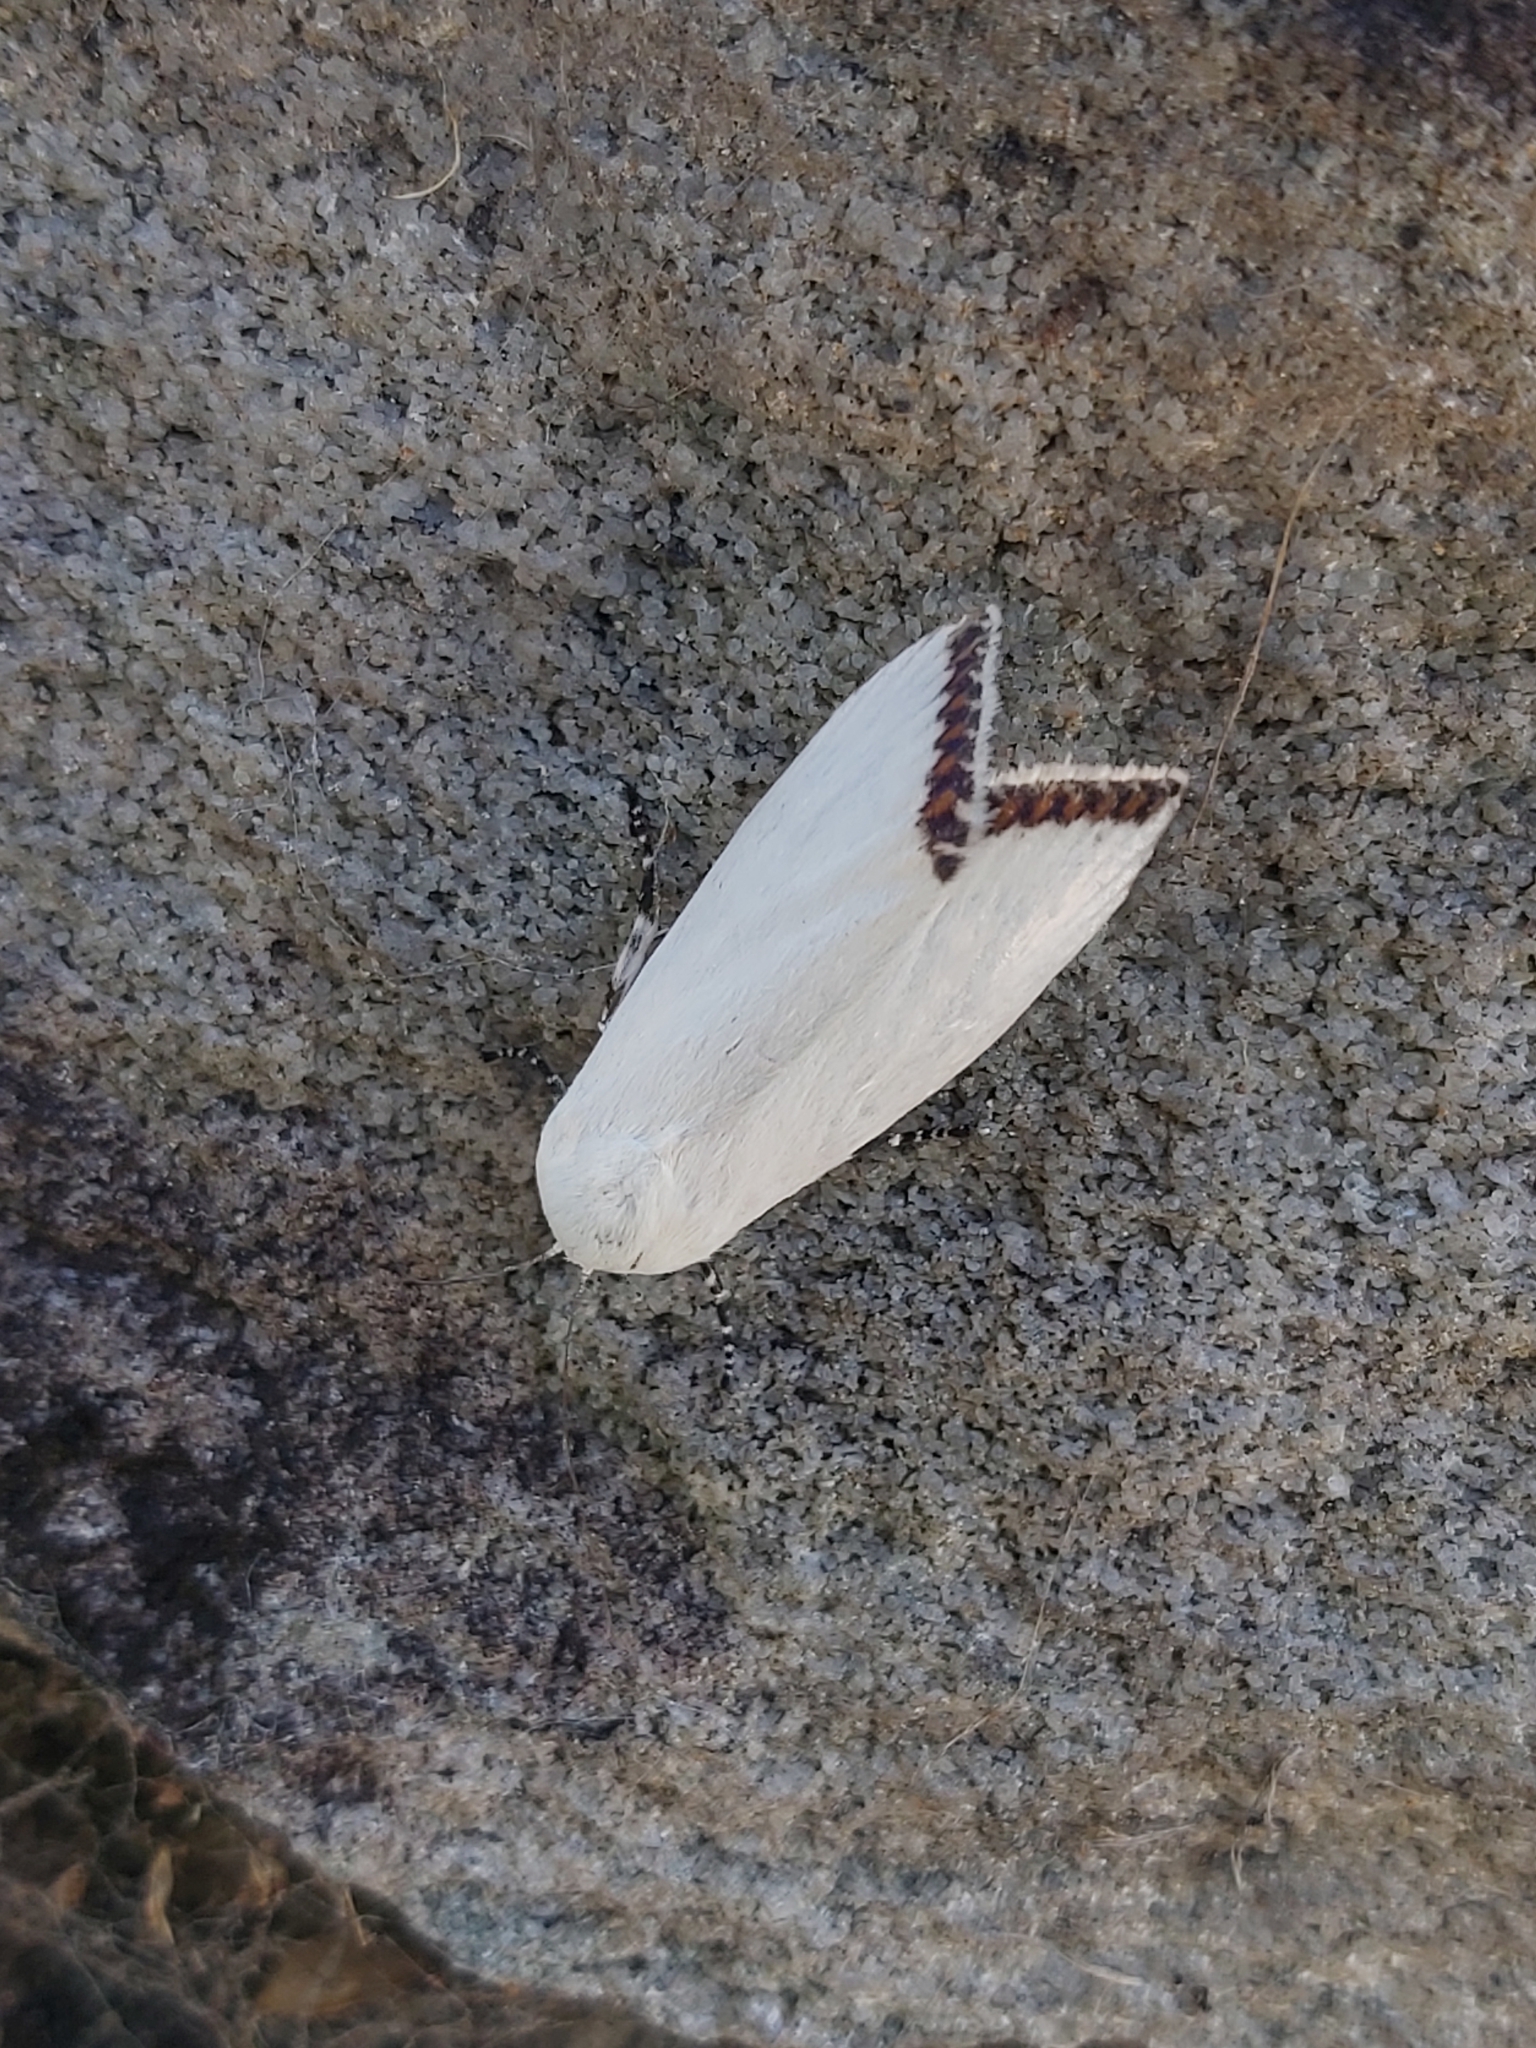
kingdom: Animalia
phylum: Arthropoda
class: Insecta
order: Lepidoptera
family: Xyloryctidae
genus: Thysiarcha
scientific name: Thysiarcha ecclesiastis
